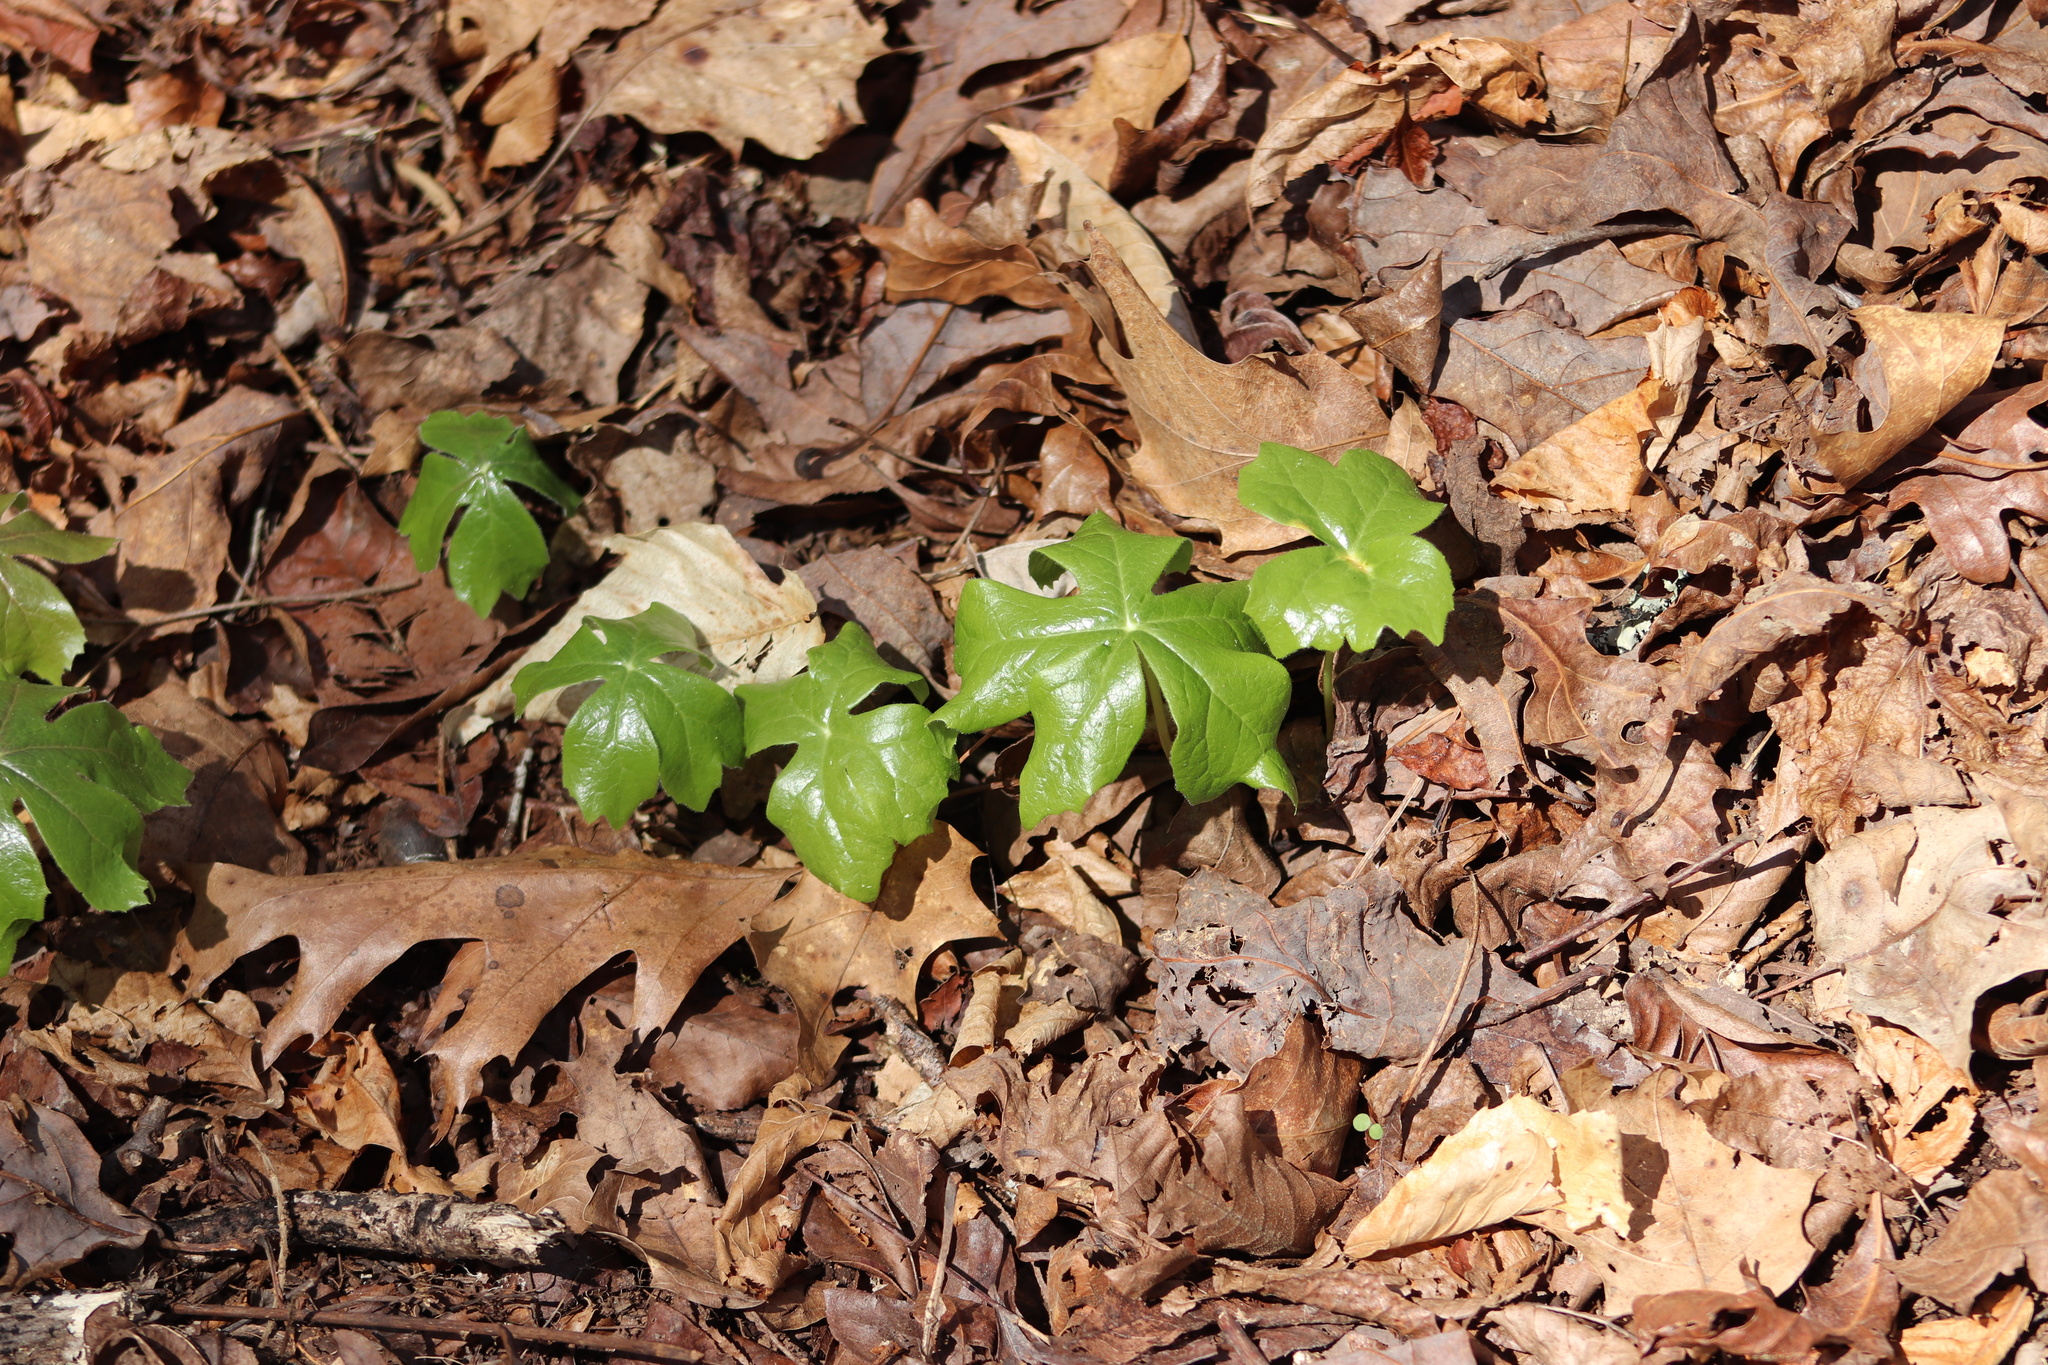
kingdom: Plantae
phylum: Tracheophyta
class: Magnoliopsida
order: Ranunculales
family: Berberidaceae
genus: Podophyllum
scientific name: Podophyllum peltatum
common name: Wild mandrake
